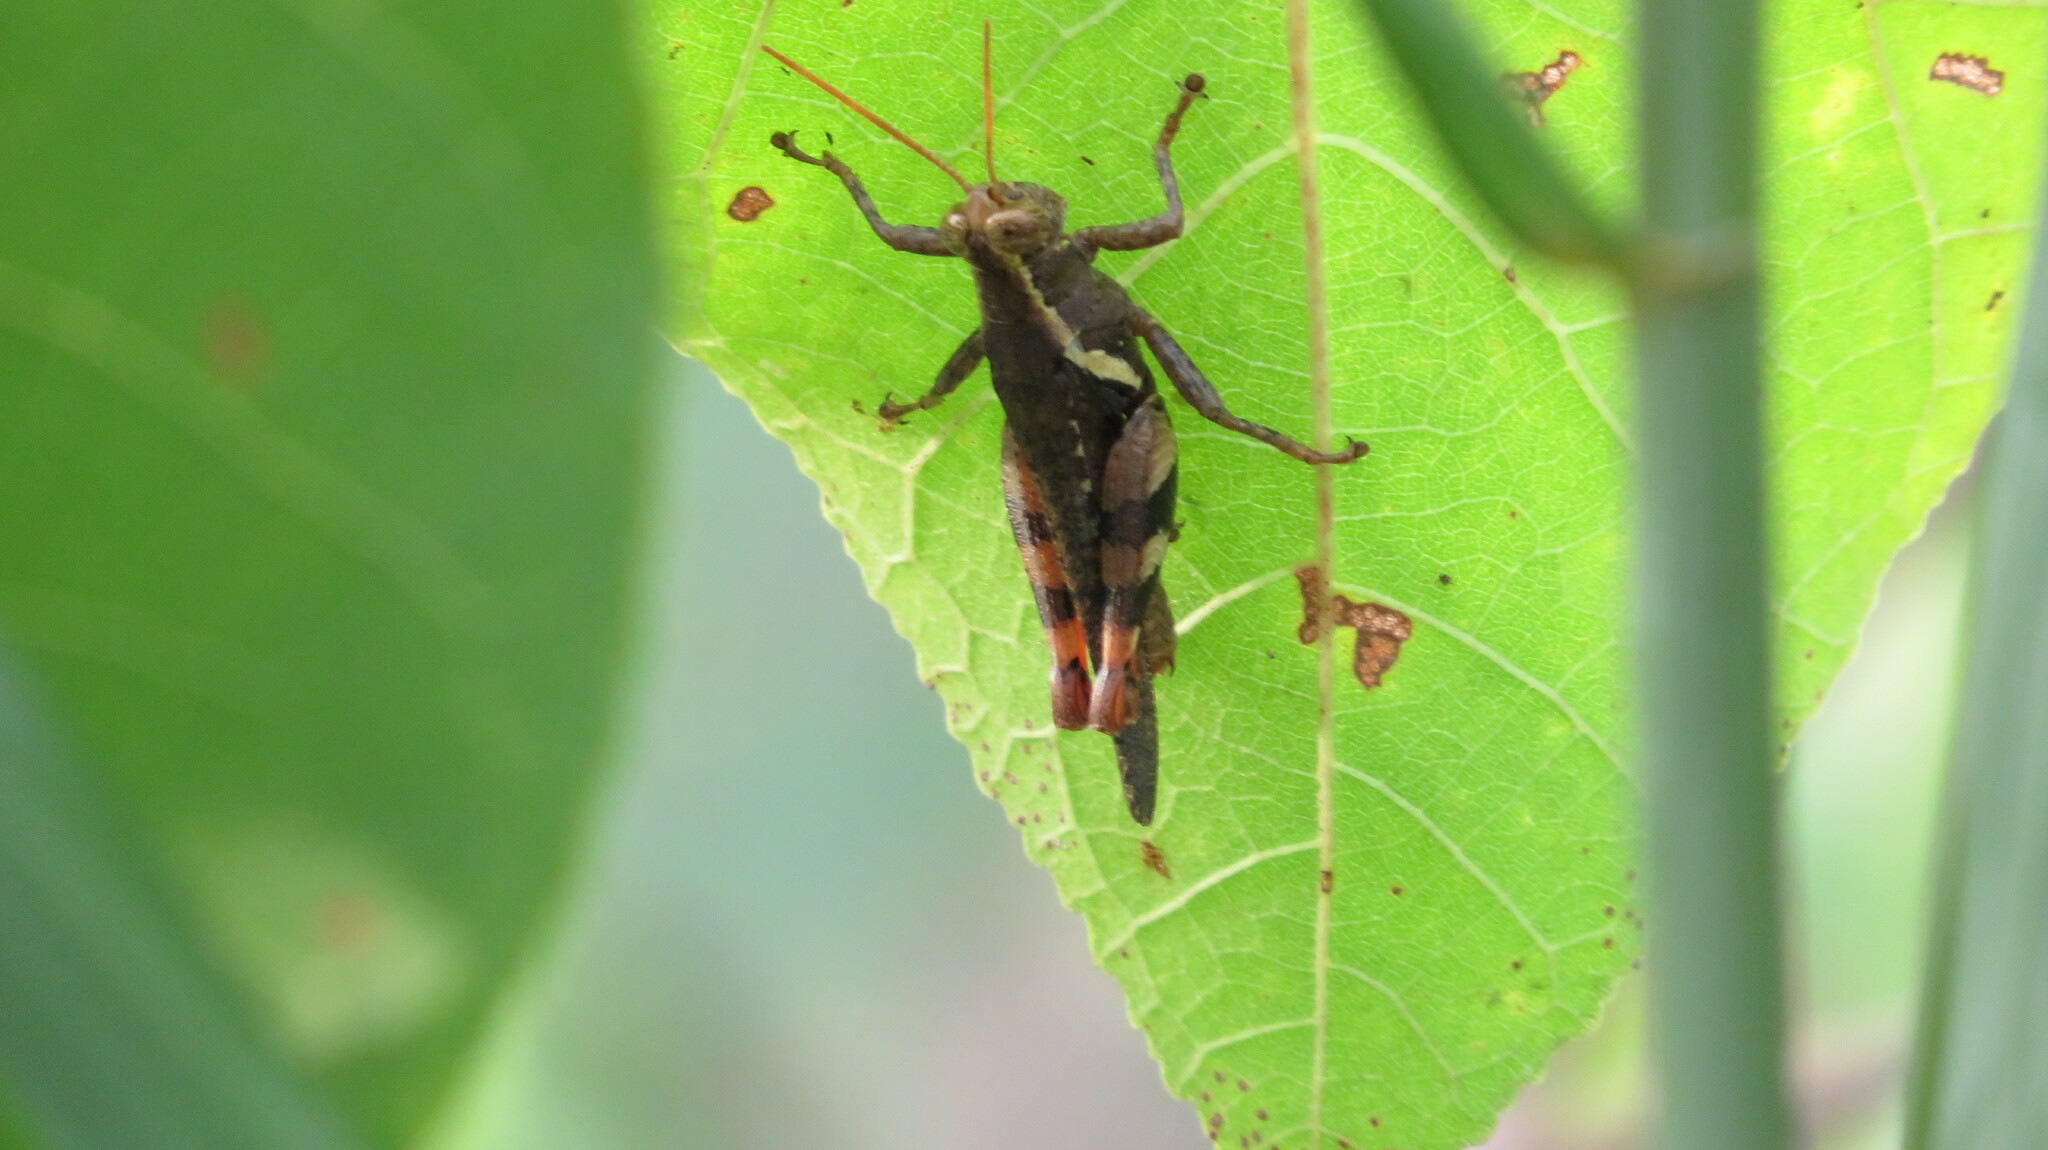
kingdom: Animalia
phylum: Arthropoda
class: Insecta
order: Orthoptera
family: Acrididae
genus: Xenocatantops
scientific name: Xenocatantops humile
